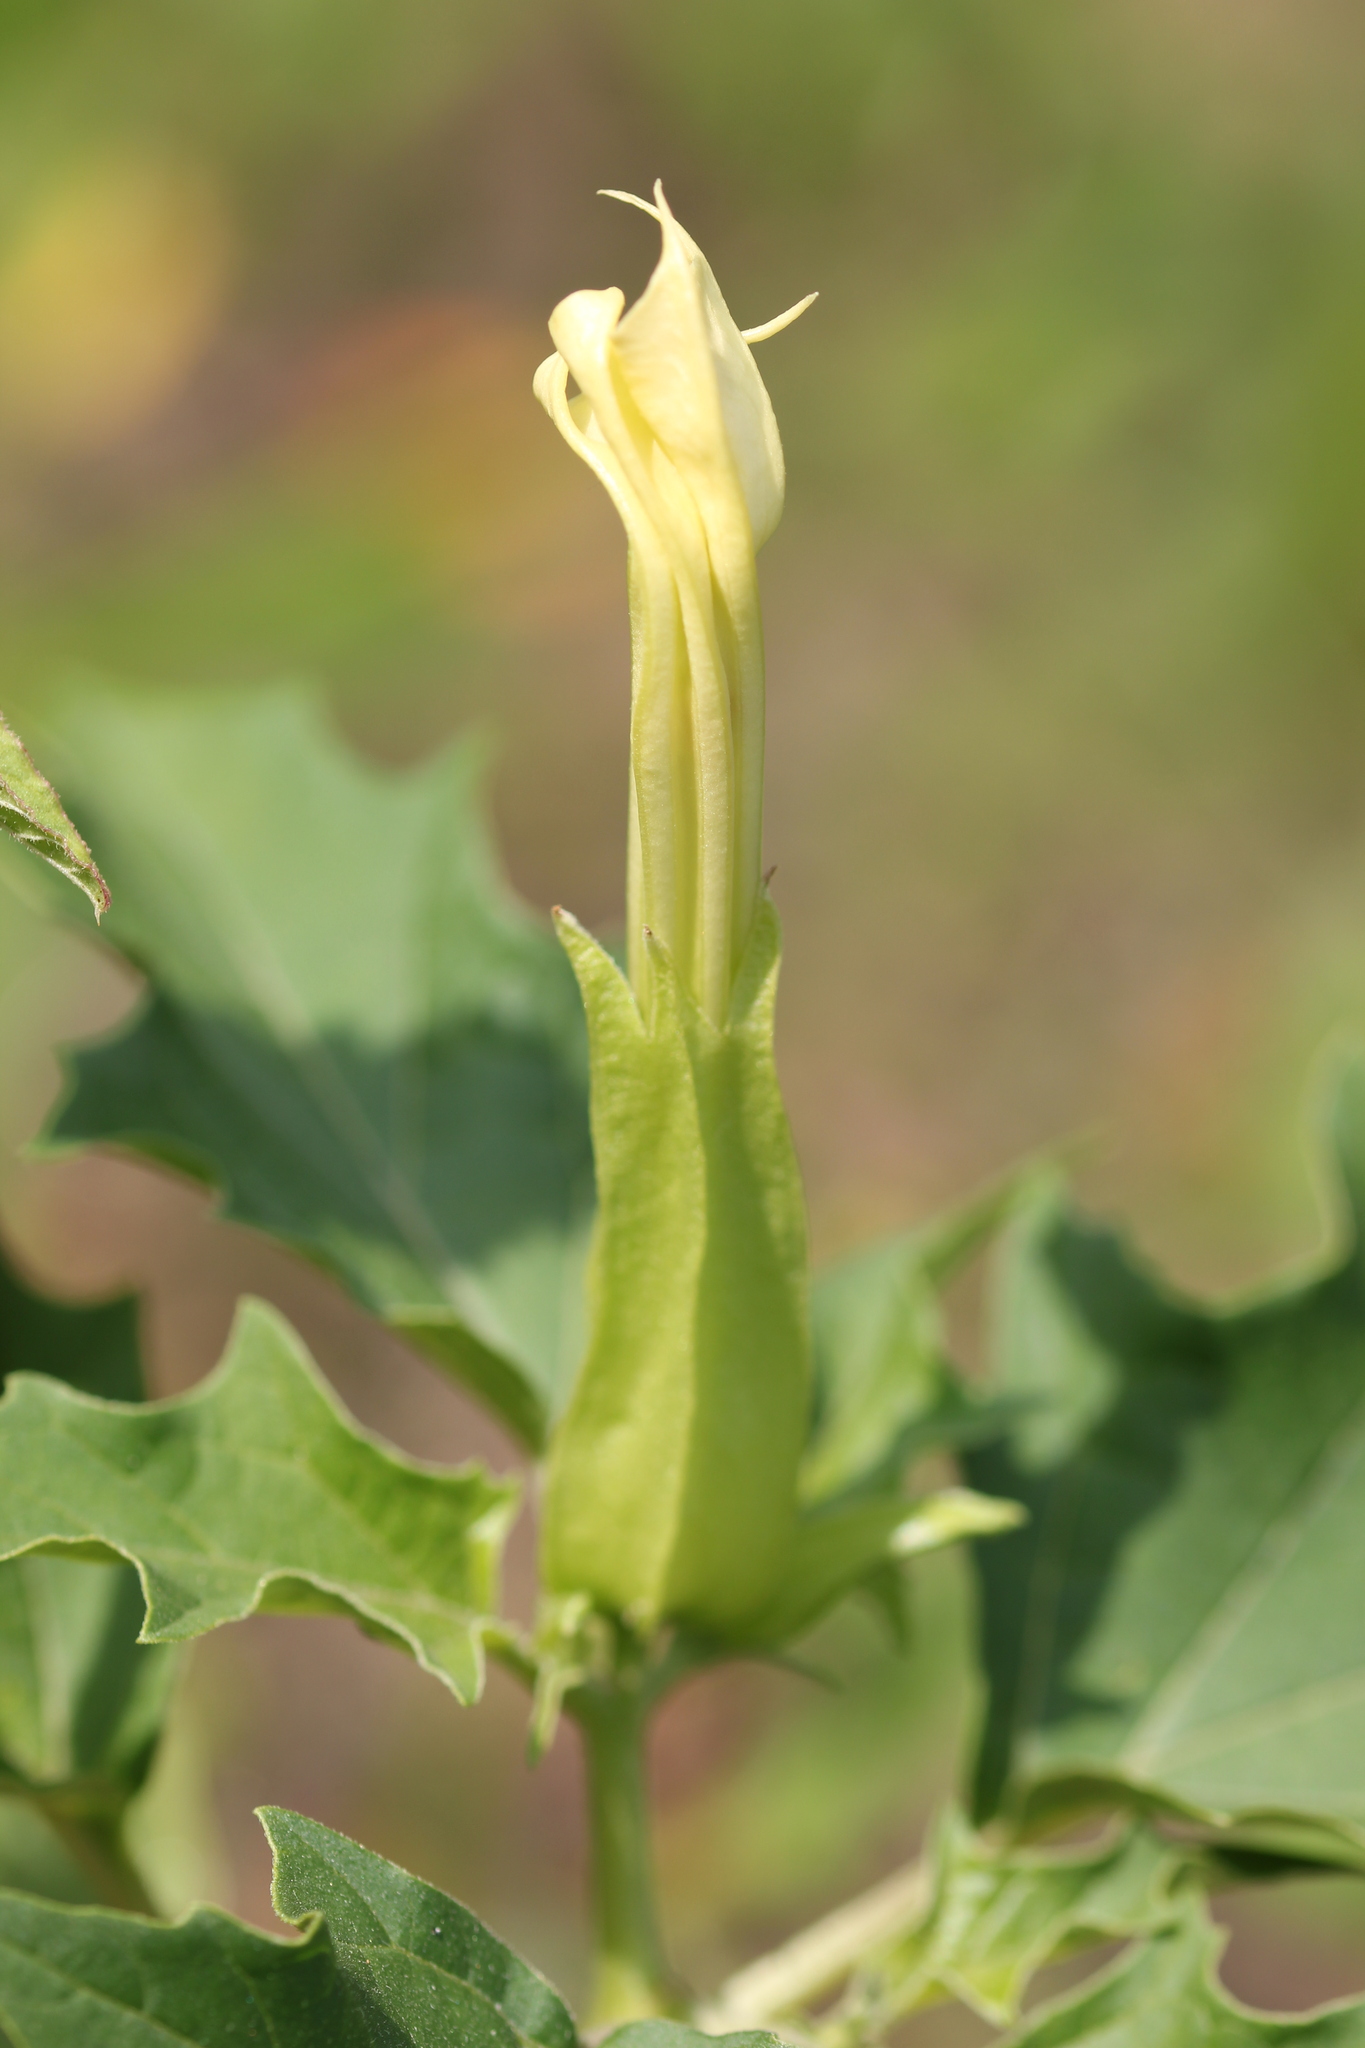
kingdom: Plantae
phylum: Tracheophyta
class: Magnoliopsida
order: Solanales
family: Solanaceae
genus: Datura
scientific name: Datura stramonium
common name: Thorn-apple
